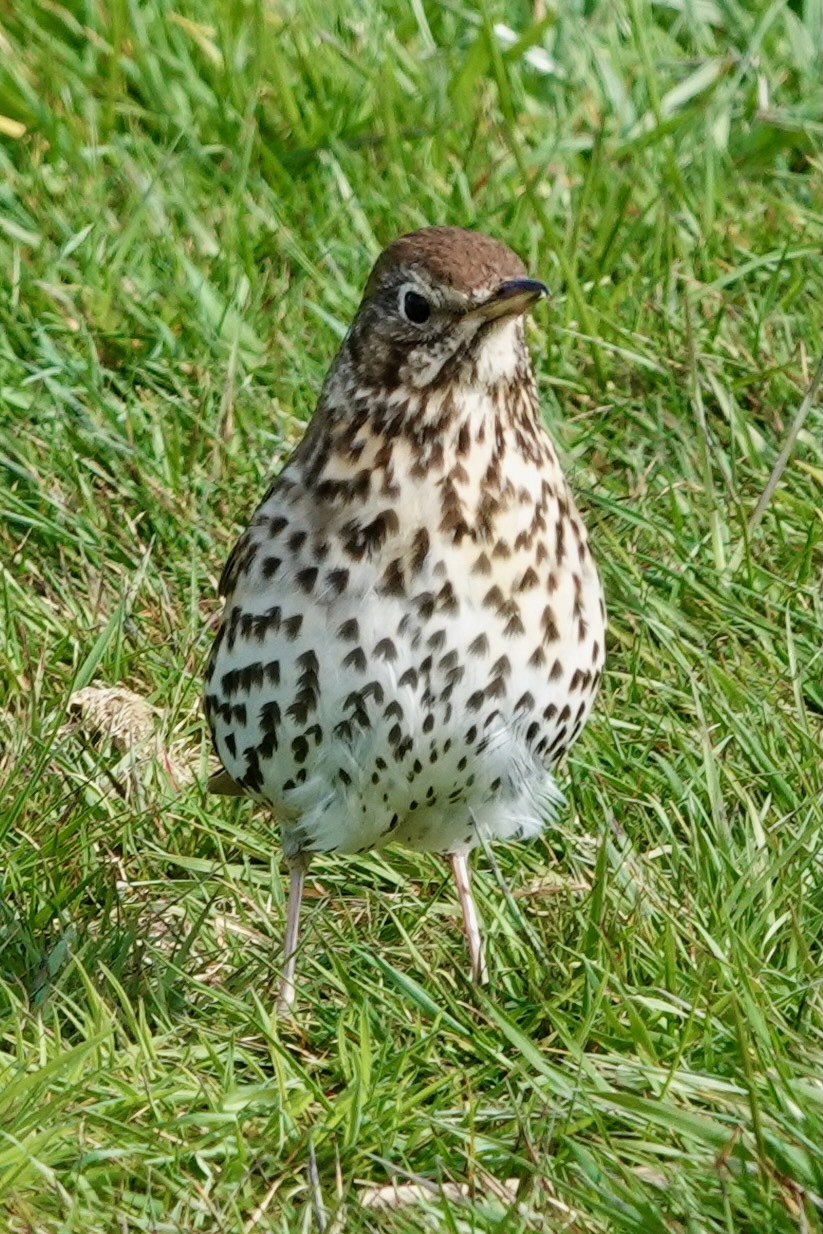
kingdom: Animalia
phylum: Chordata
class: Aves
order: Passeriformes
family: Turdidae
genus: Turdus
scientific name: Turdus philomelos
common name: Song thrush
